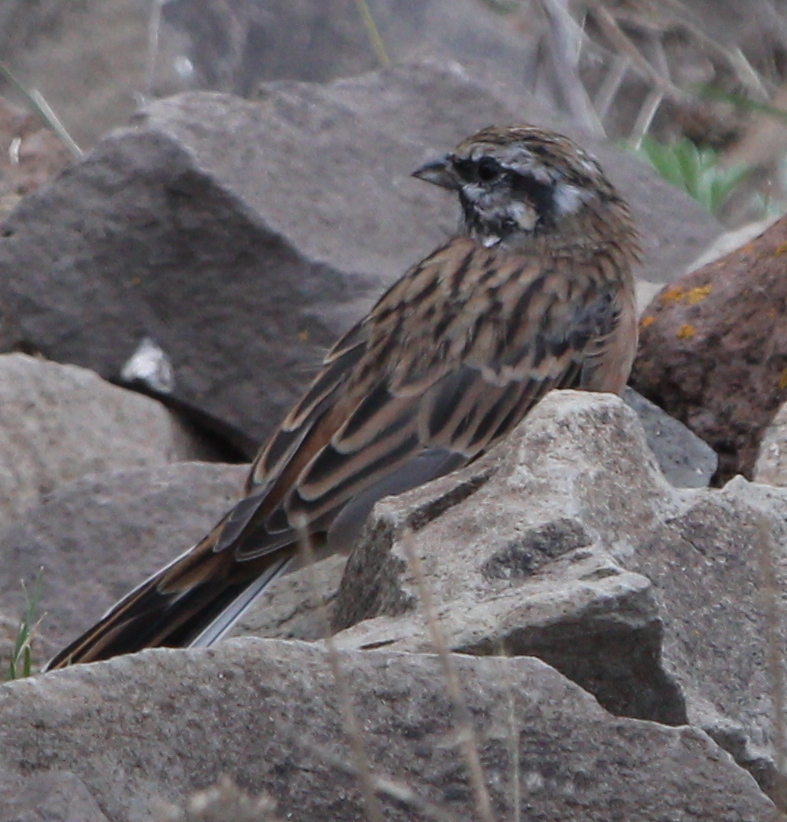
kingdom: Animalia
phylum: Chordata
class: Aves
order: Passeriformes
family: Emberizidae
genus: Emberiza
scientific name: Emberiza cia
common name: Rock bunting
